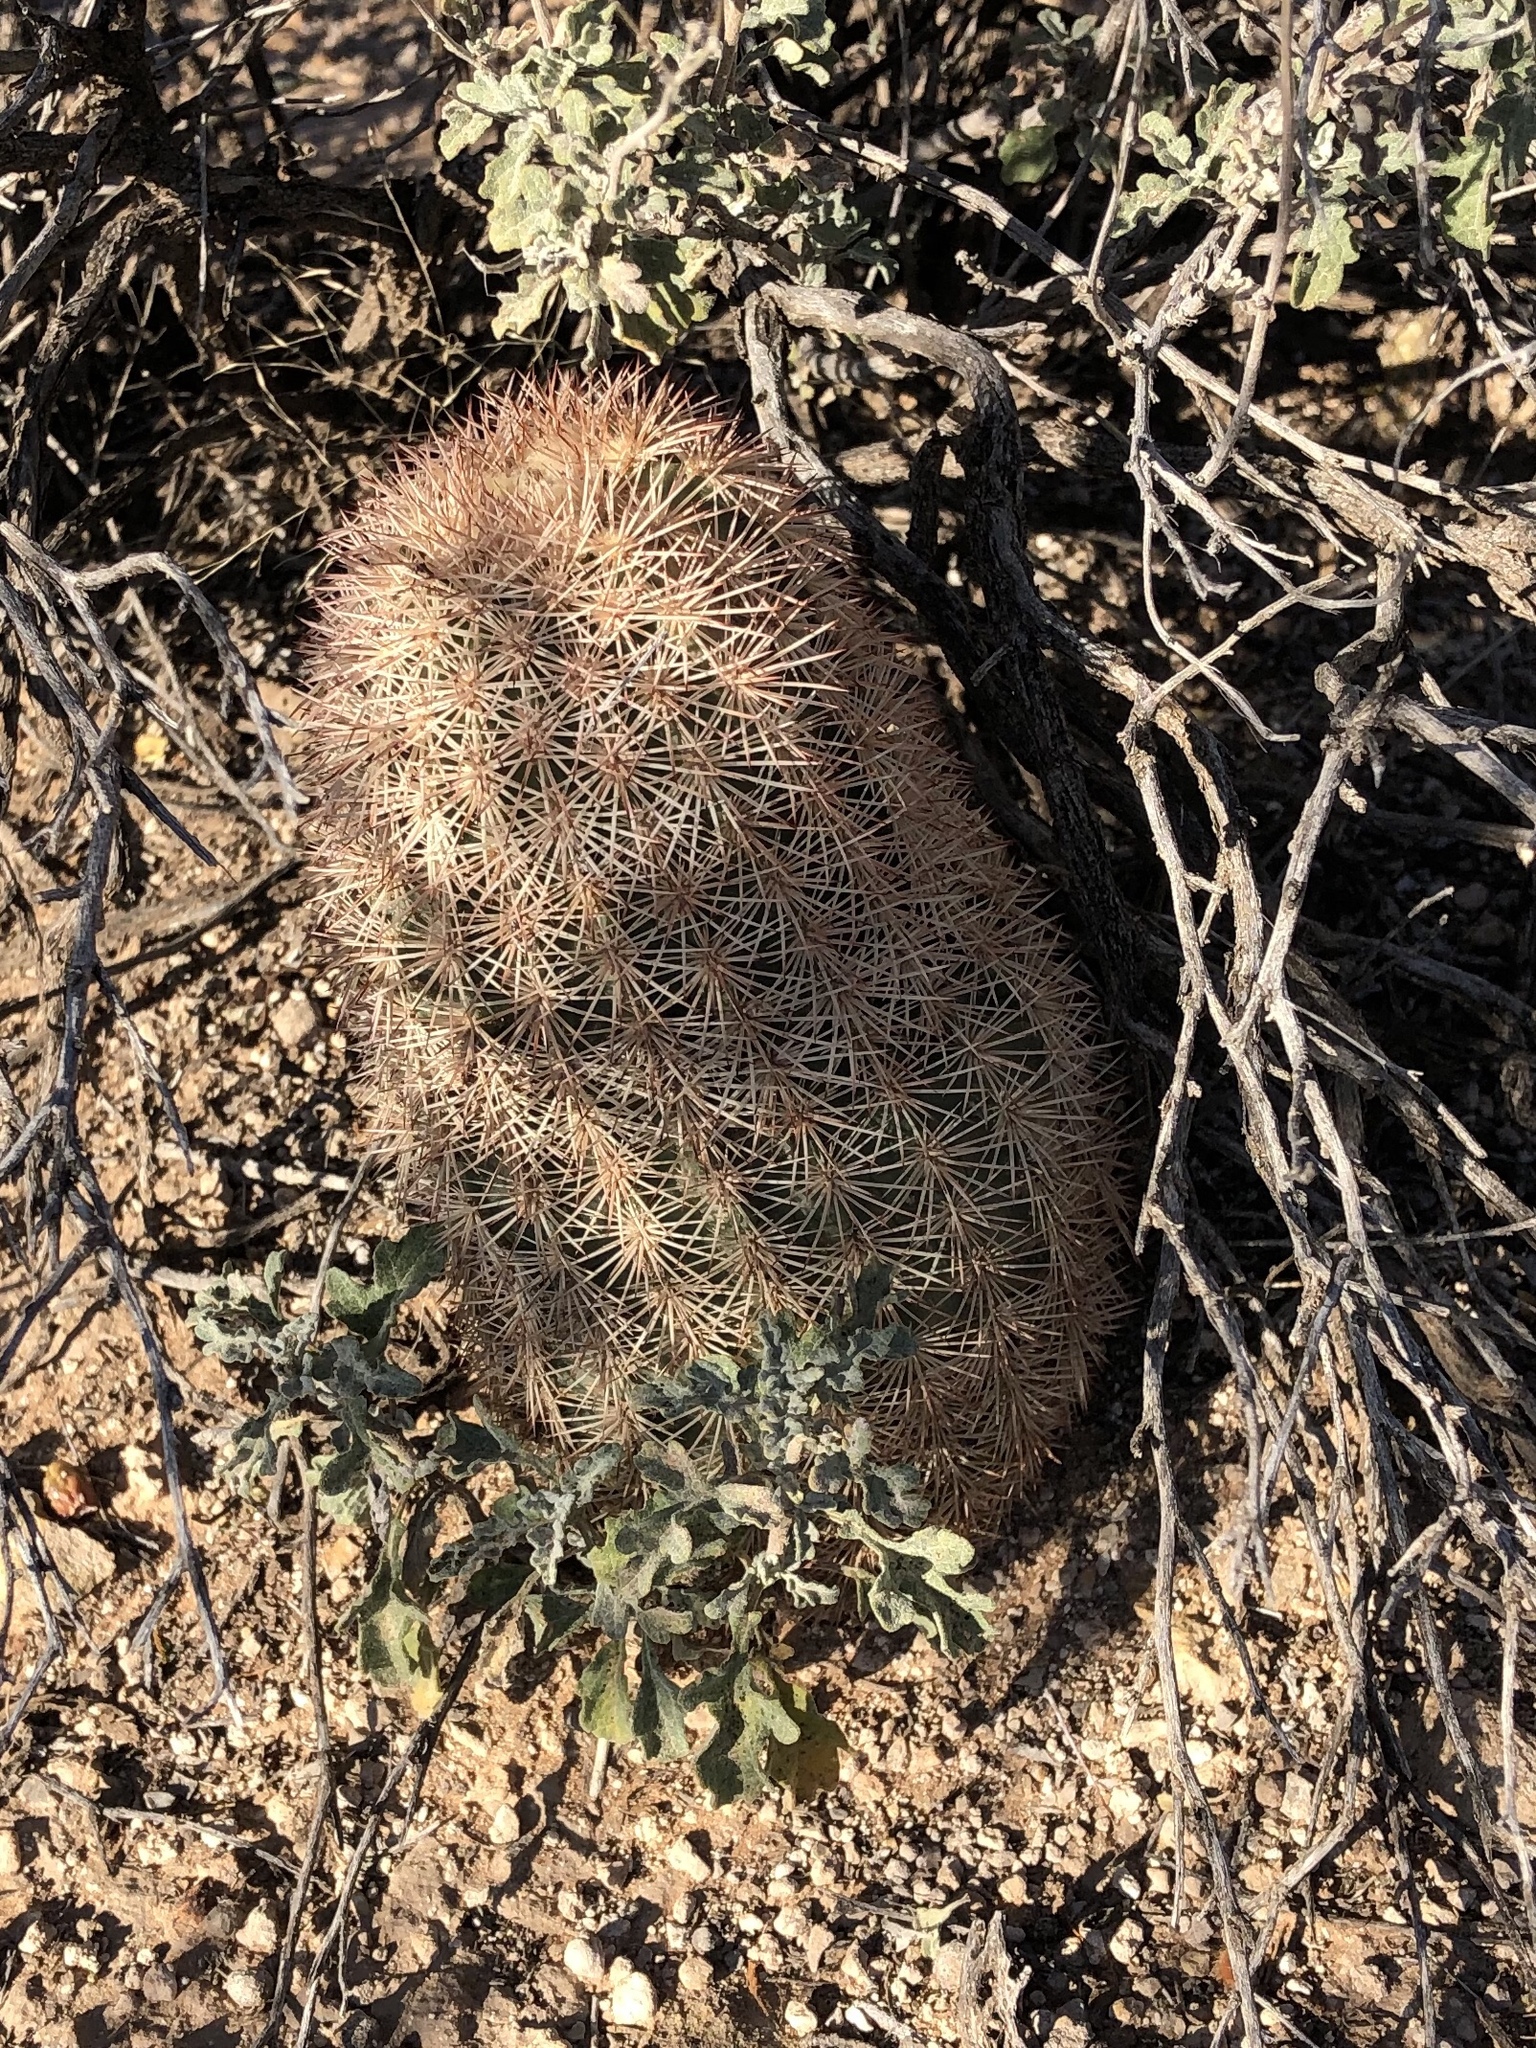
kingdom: Plantae
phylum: Tracheophyta
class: Magnoliopsida
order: Caryophyllales
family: Cactaceae
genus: Echinocereus
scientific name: Echinocereus dasyacanthus
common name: Spiny hedgehog cactus
